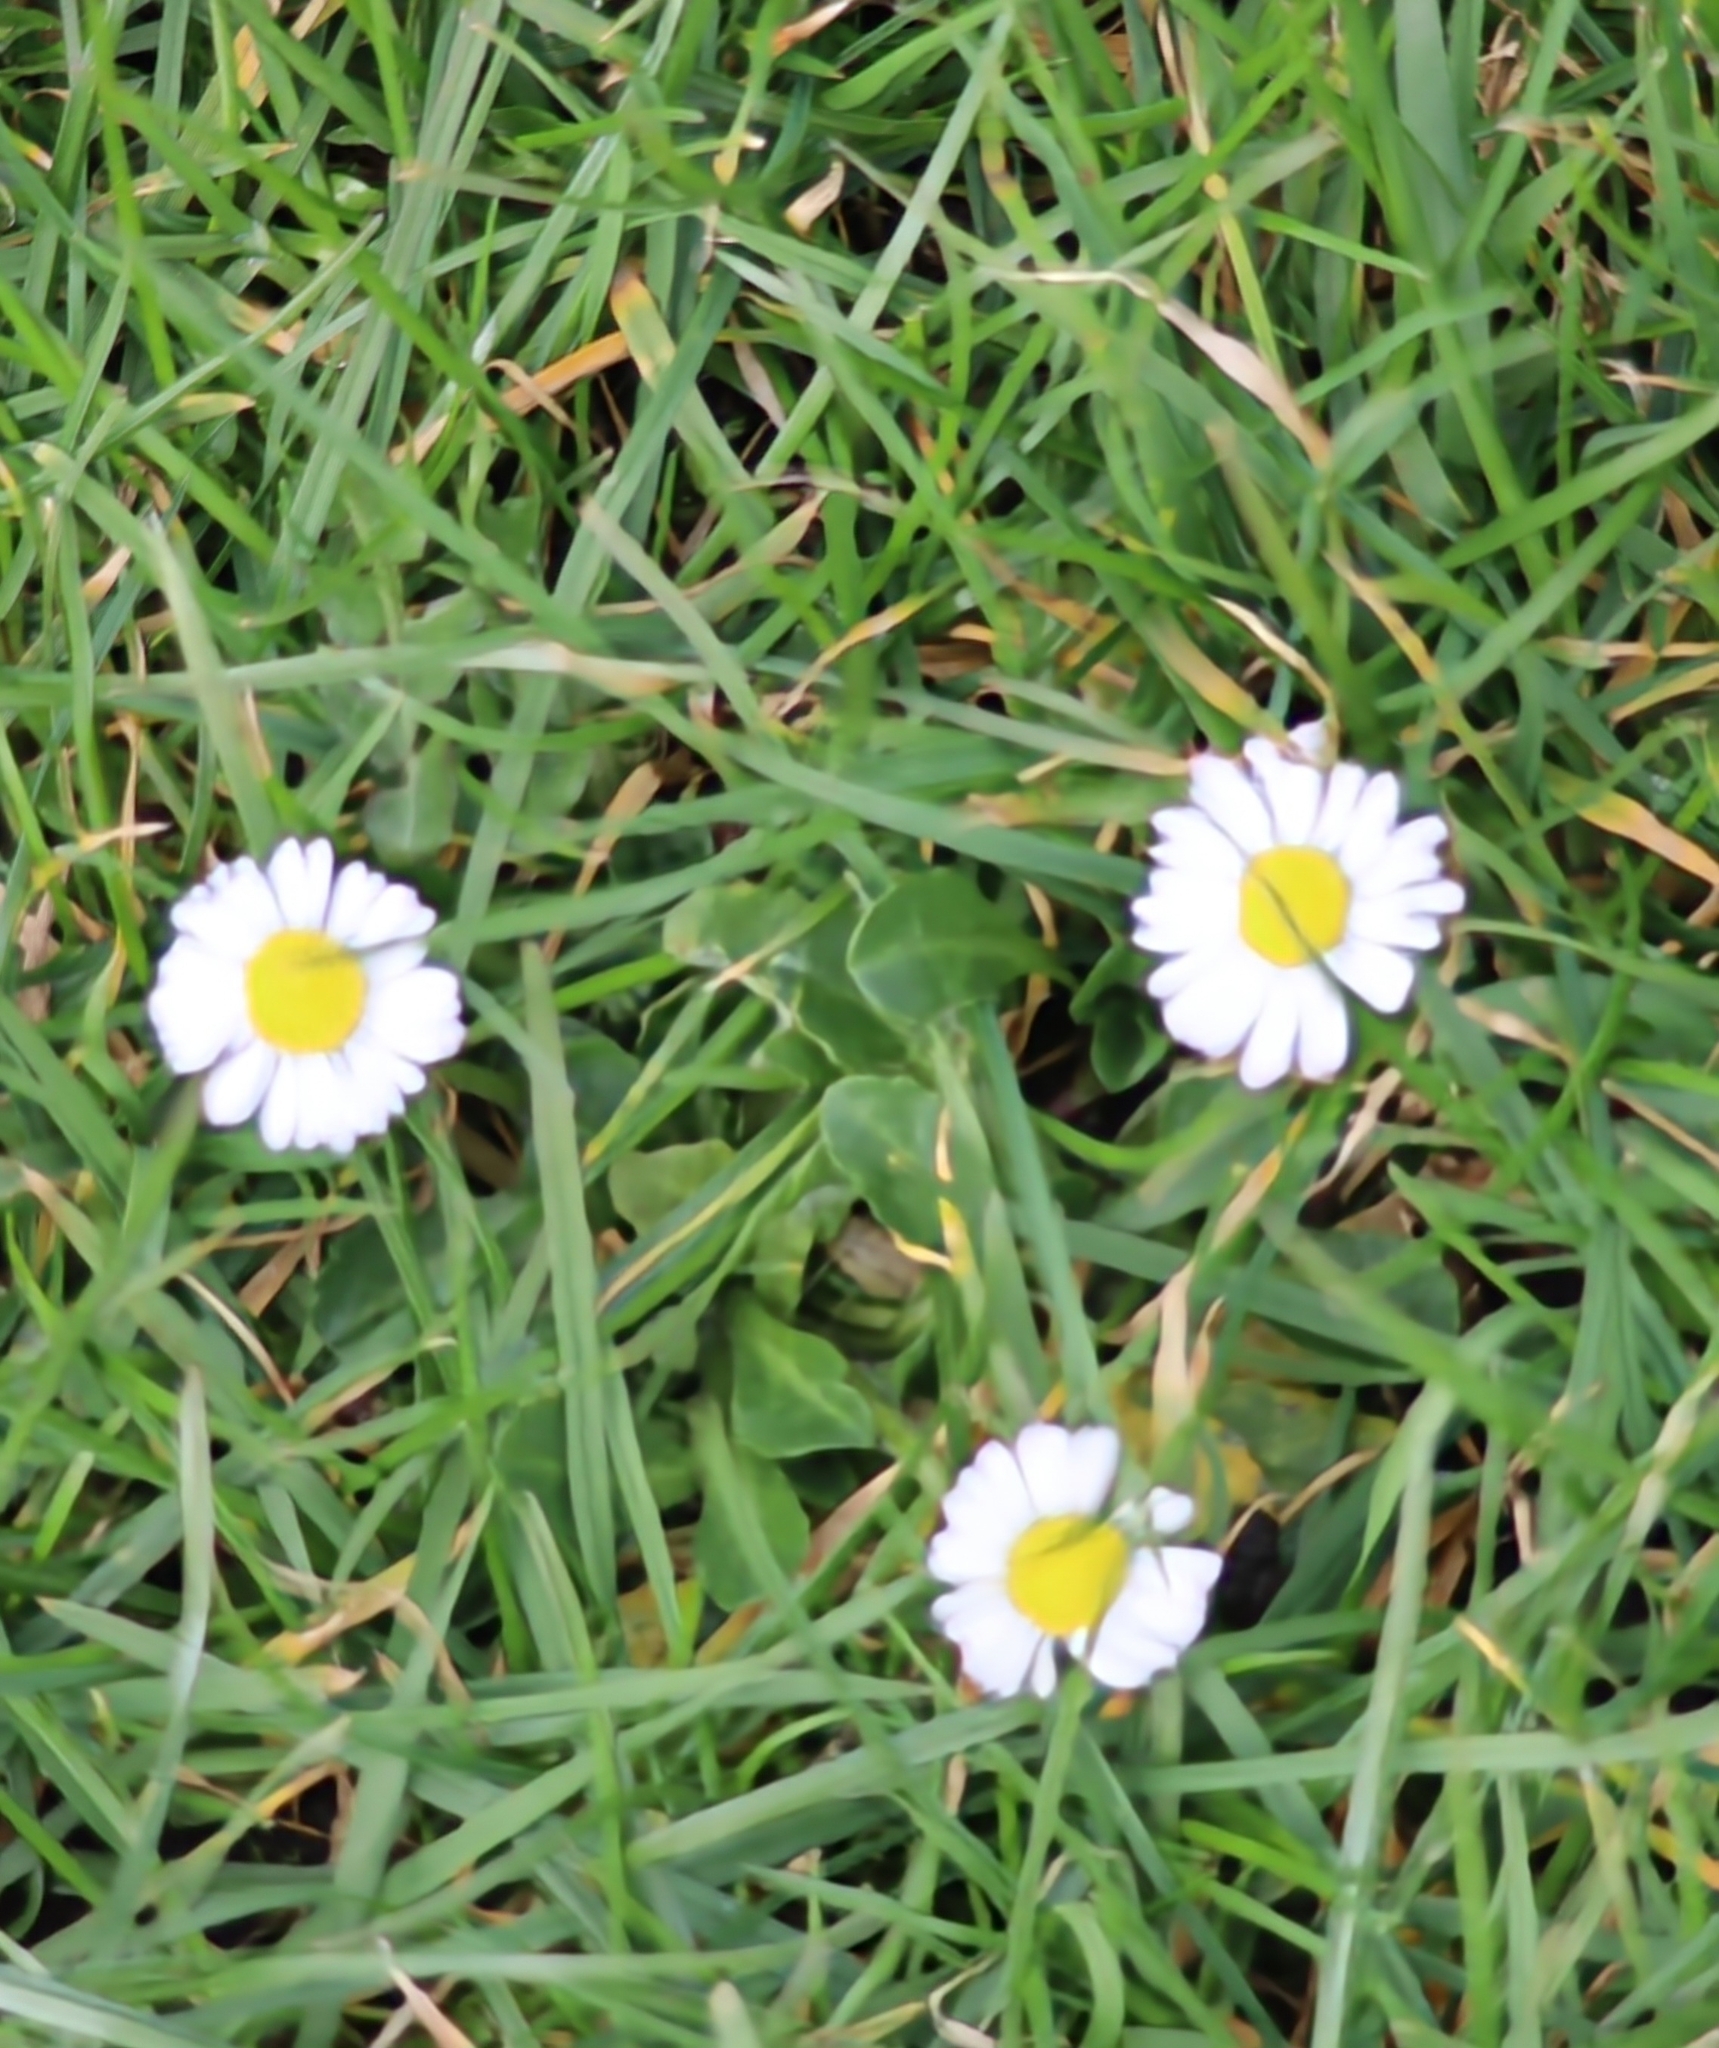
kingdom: Plantae
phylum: Tracheophyta
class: Magnoliopsida
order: Asterales
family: Asteraceae
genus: Bellis
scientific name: Bellis perennis
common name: Lawndaisy
